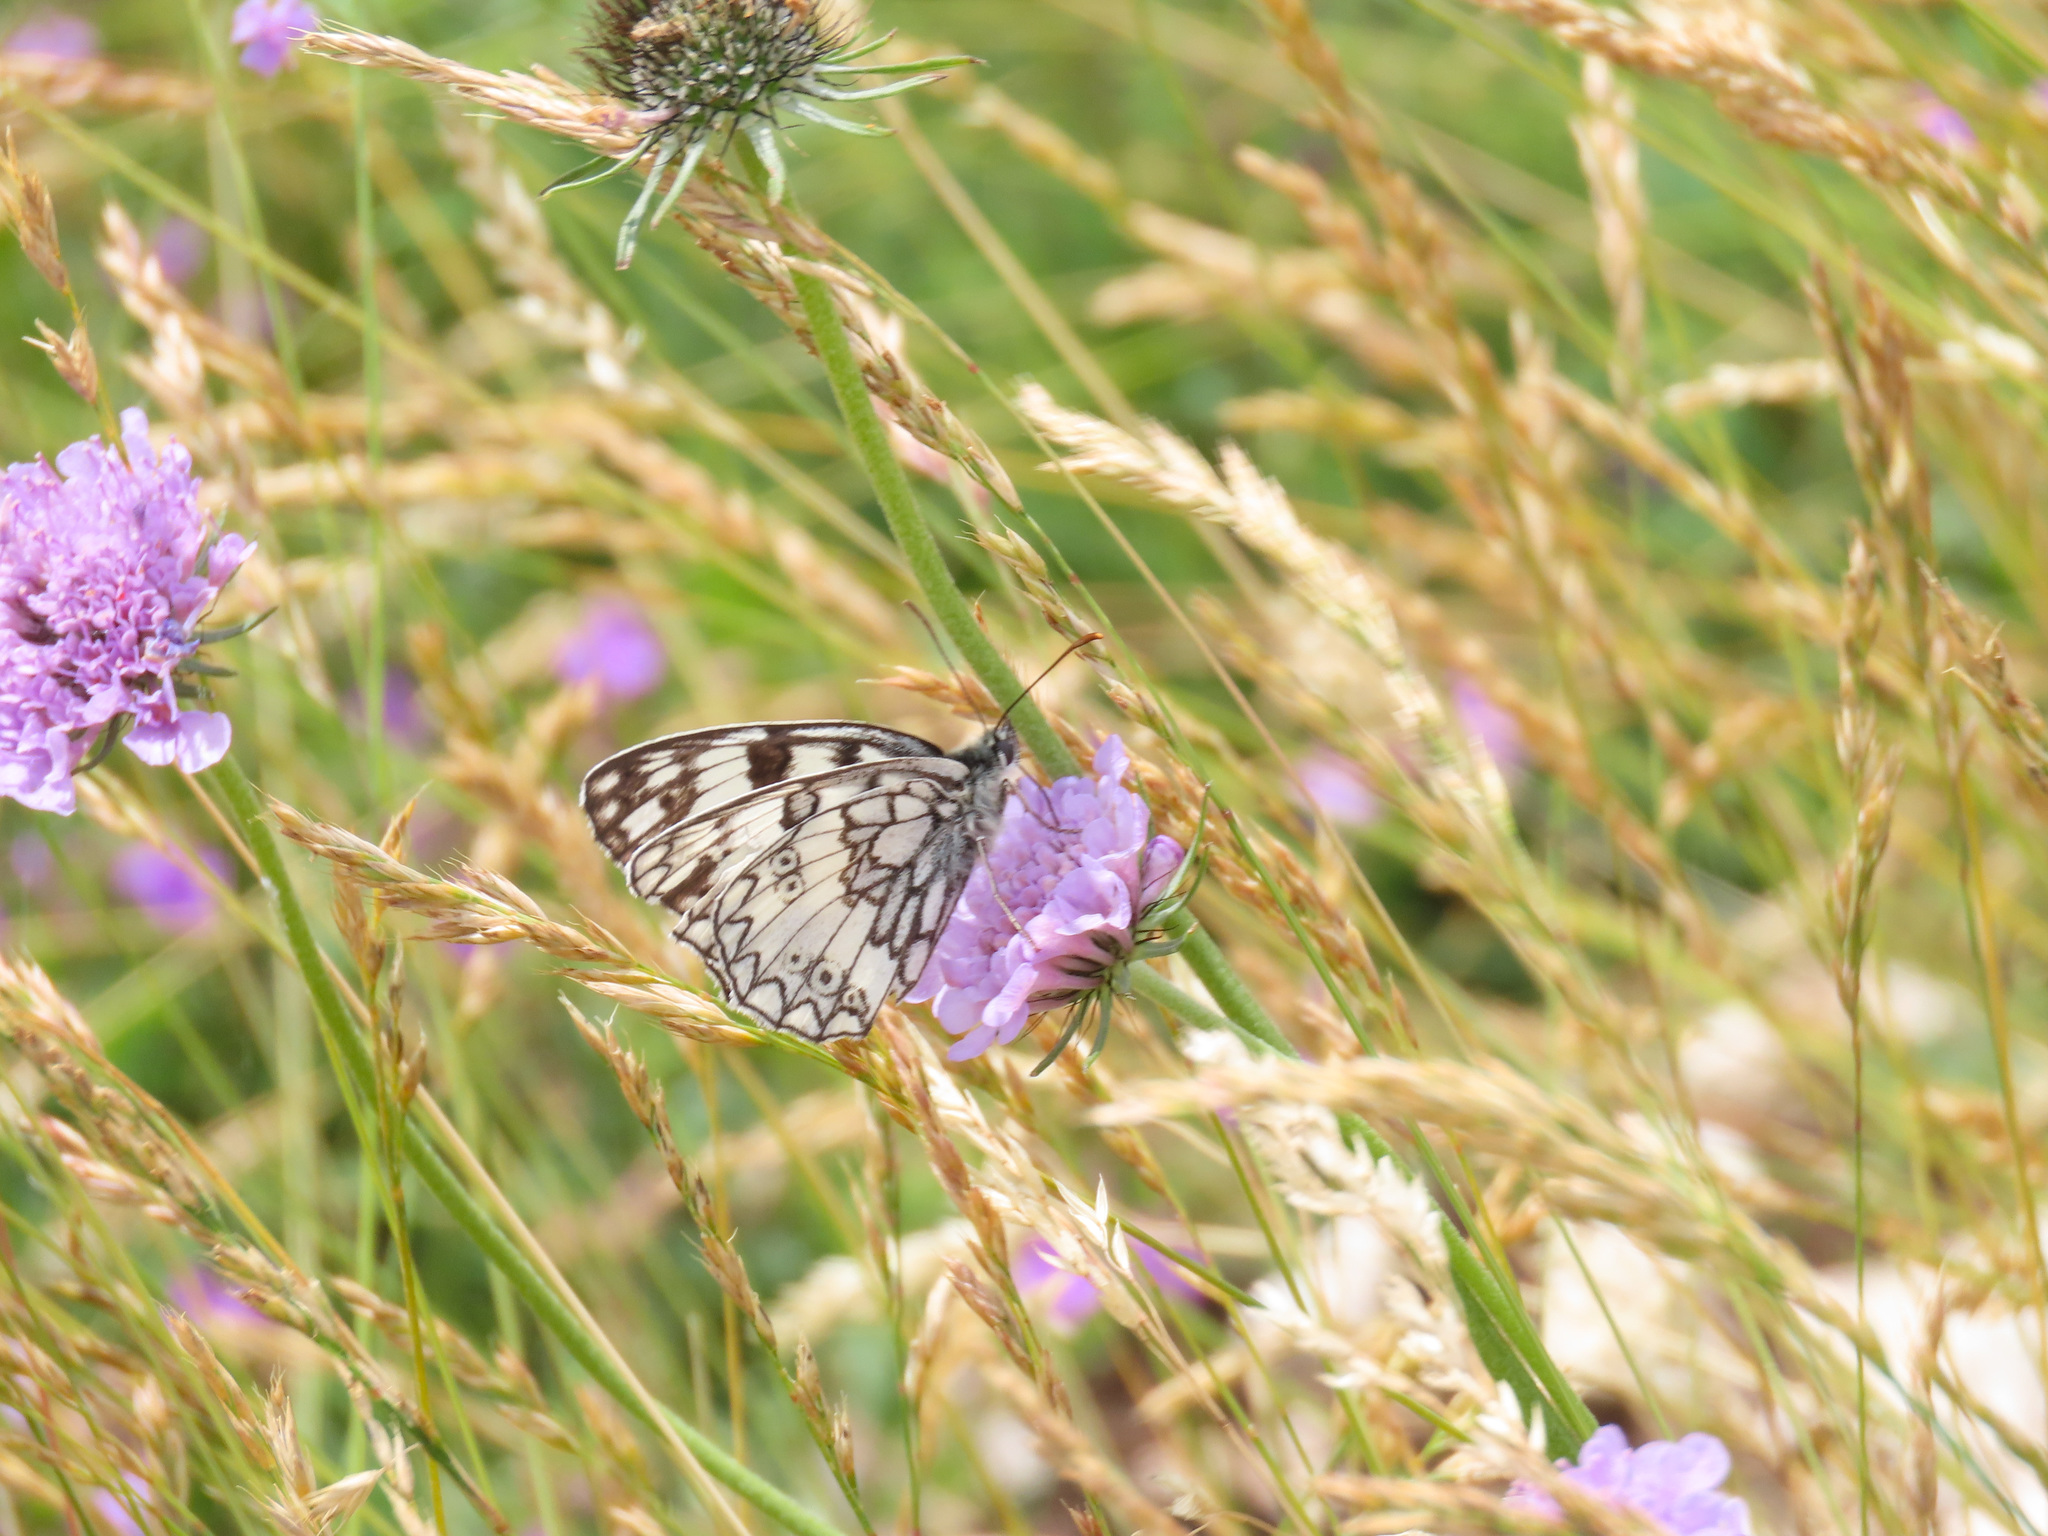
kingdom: Animalia
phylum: Arthropoda
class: Insecta
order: Lepidoptera
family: Nymphalidae
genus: Melanargia
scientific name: Melanargia japygia
